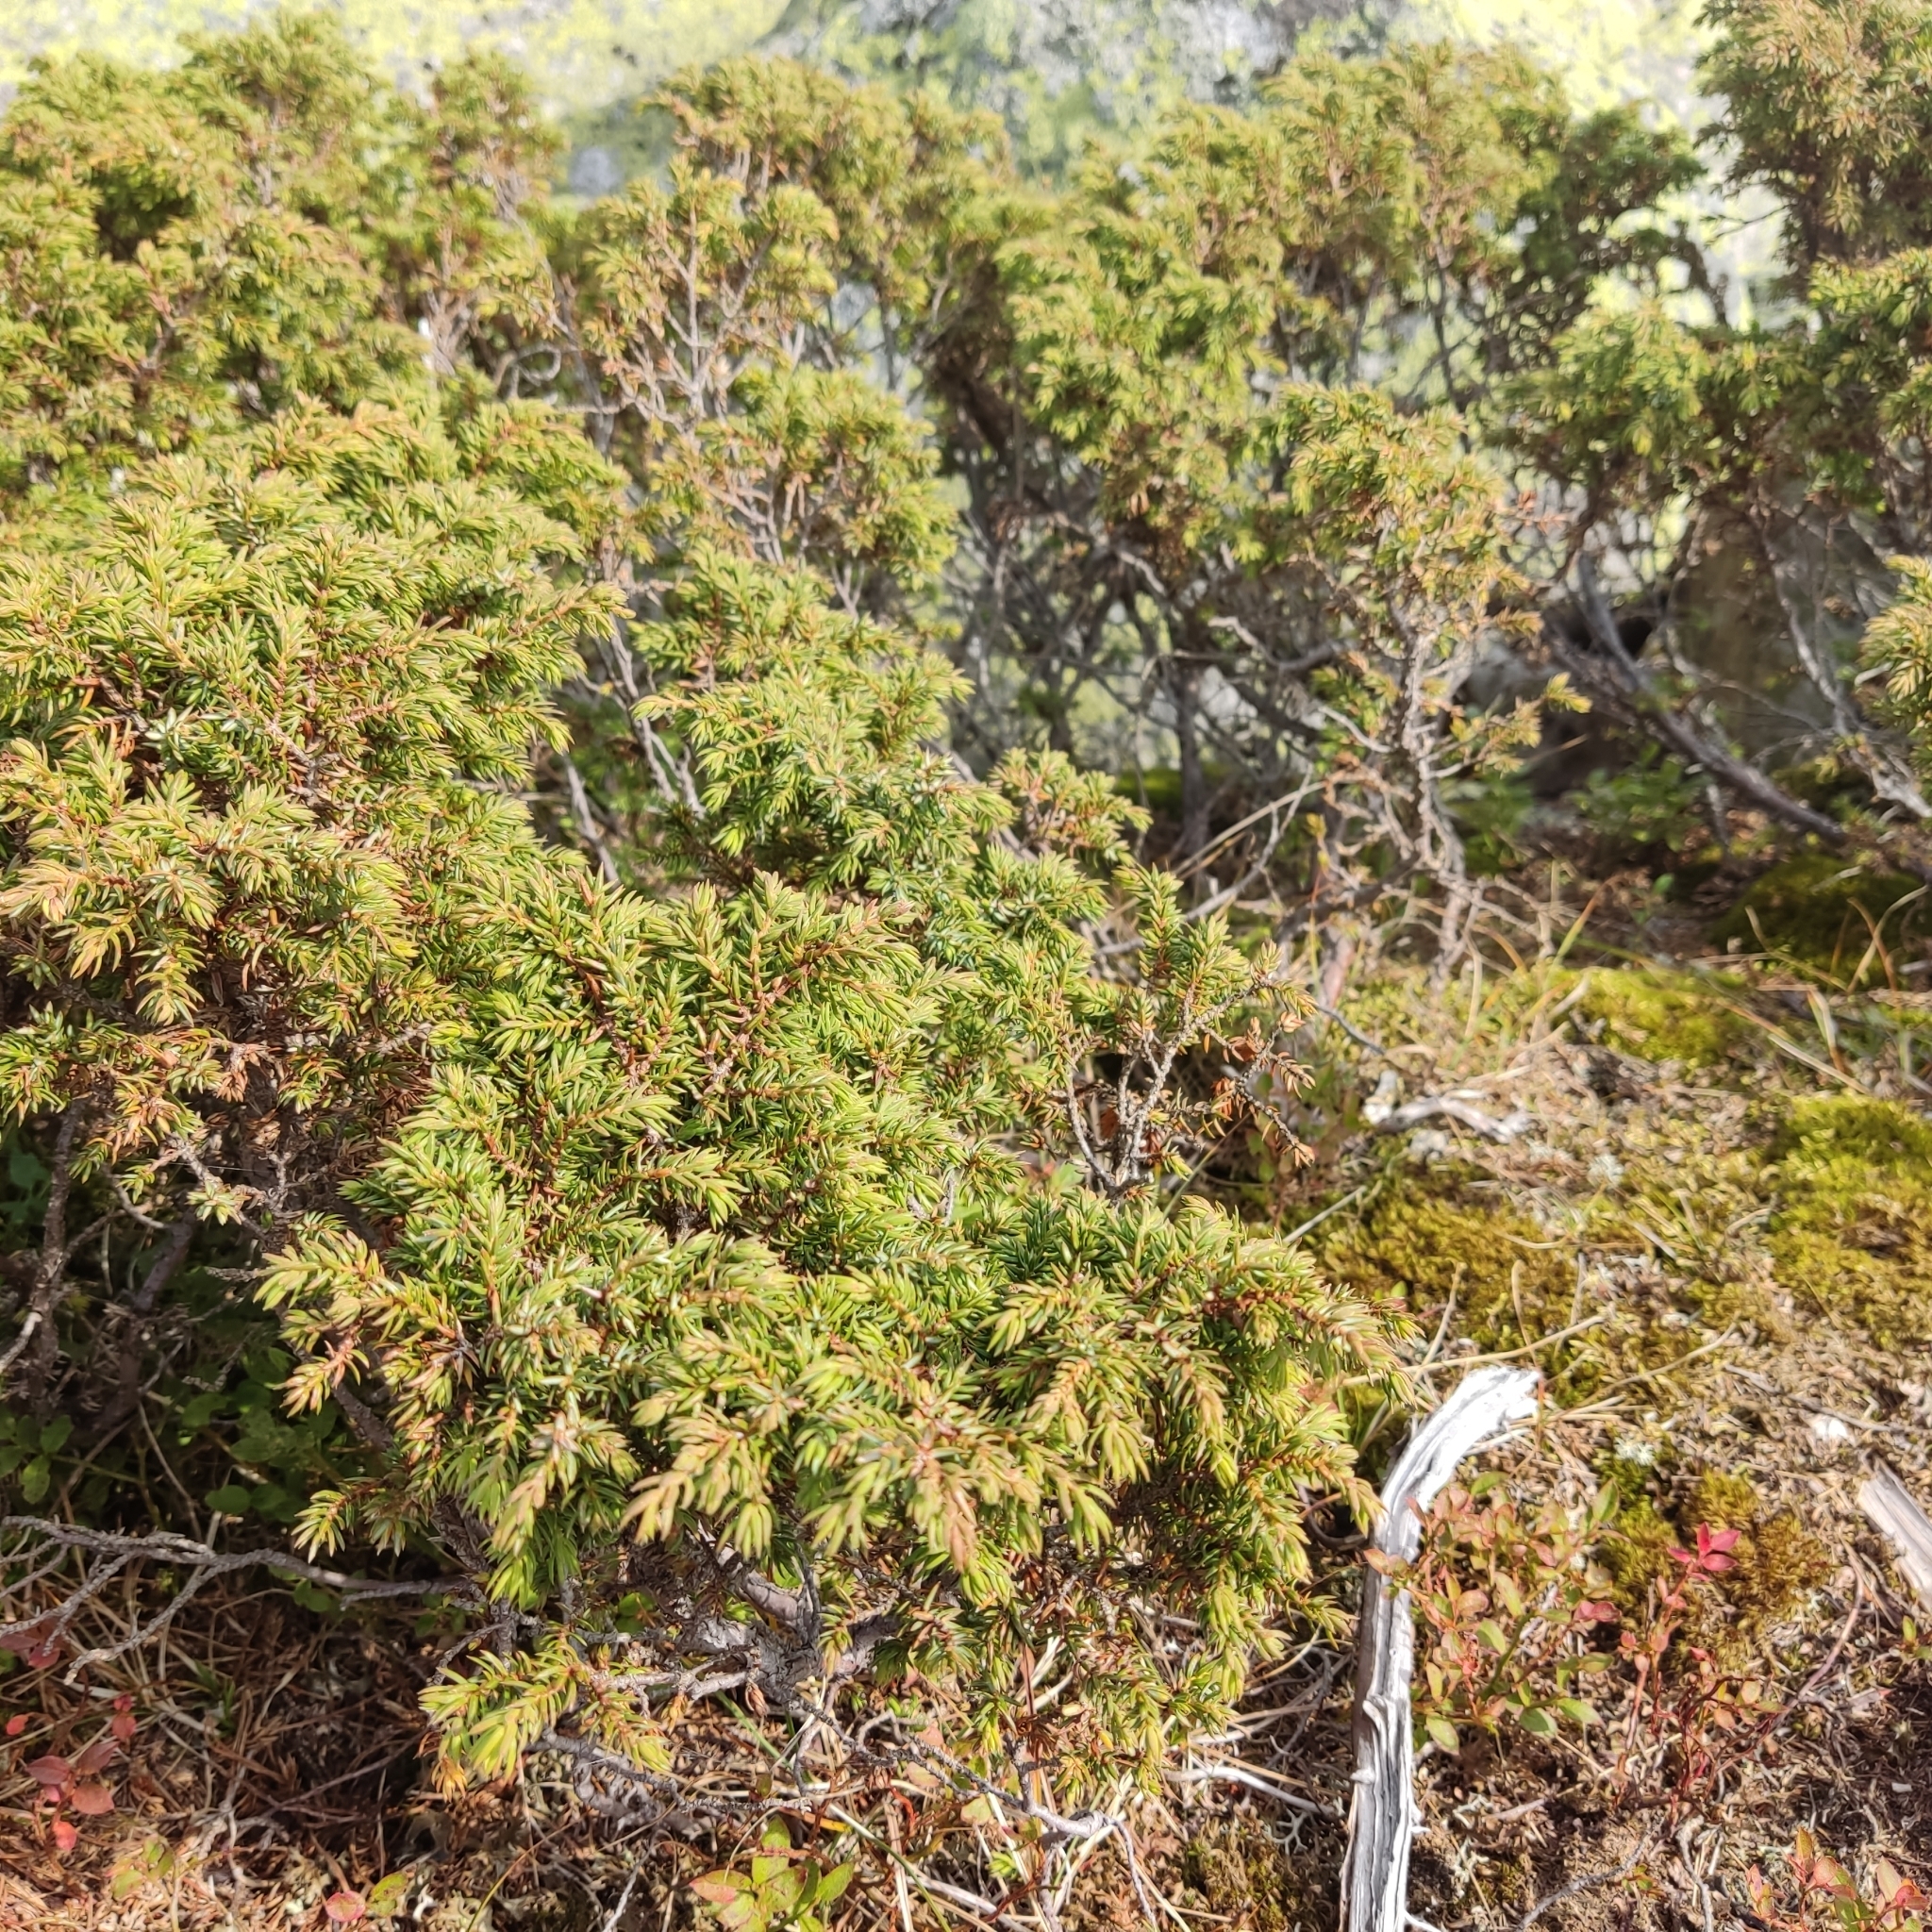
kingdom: Plantae
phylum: Tracheophyta
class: Pinopsida
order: Pinales
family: Cupressaceae
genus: Juniperus
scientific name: Juniperus communis
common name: Common juniper
